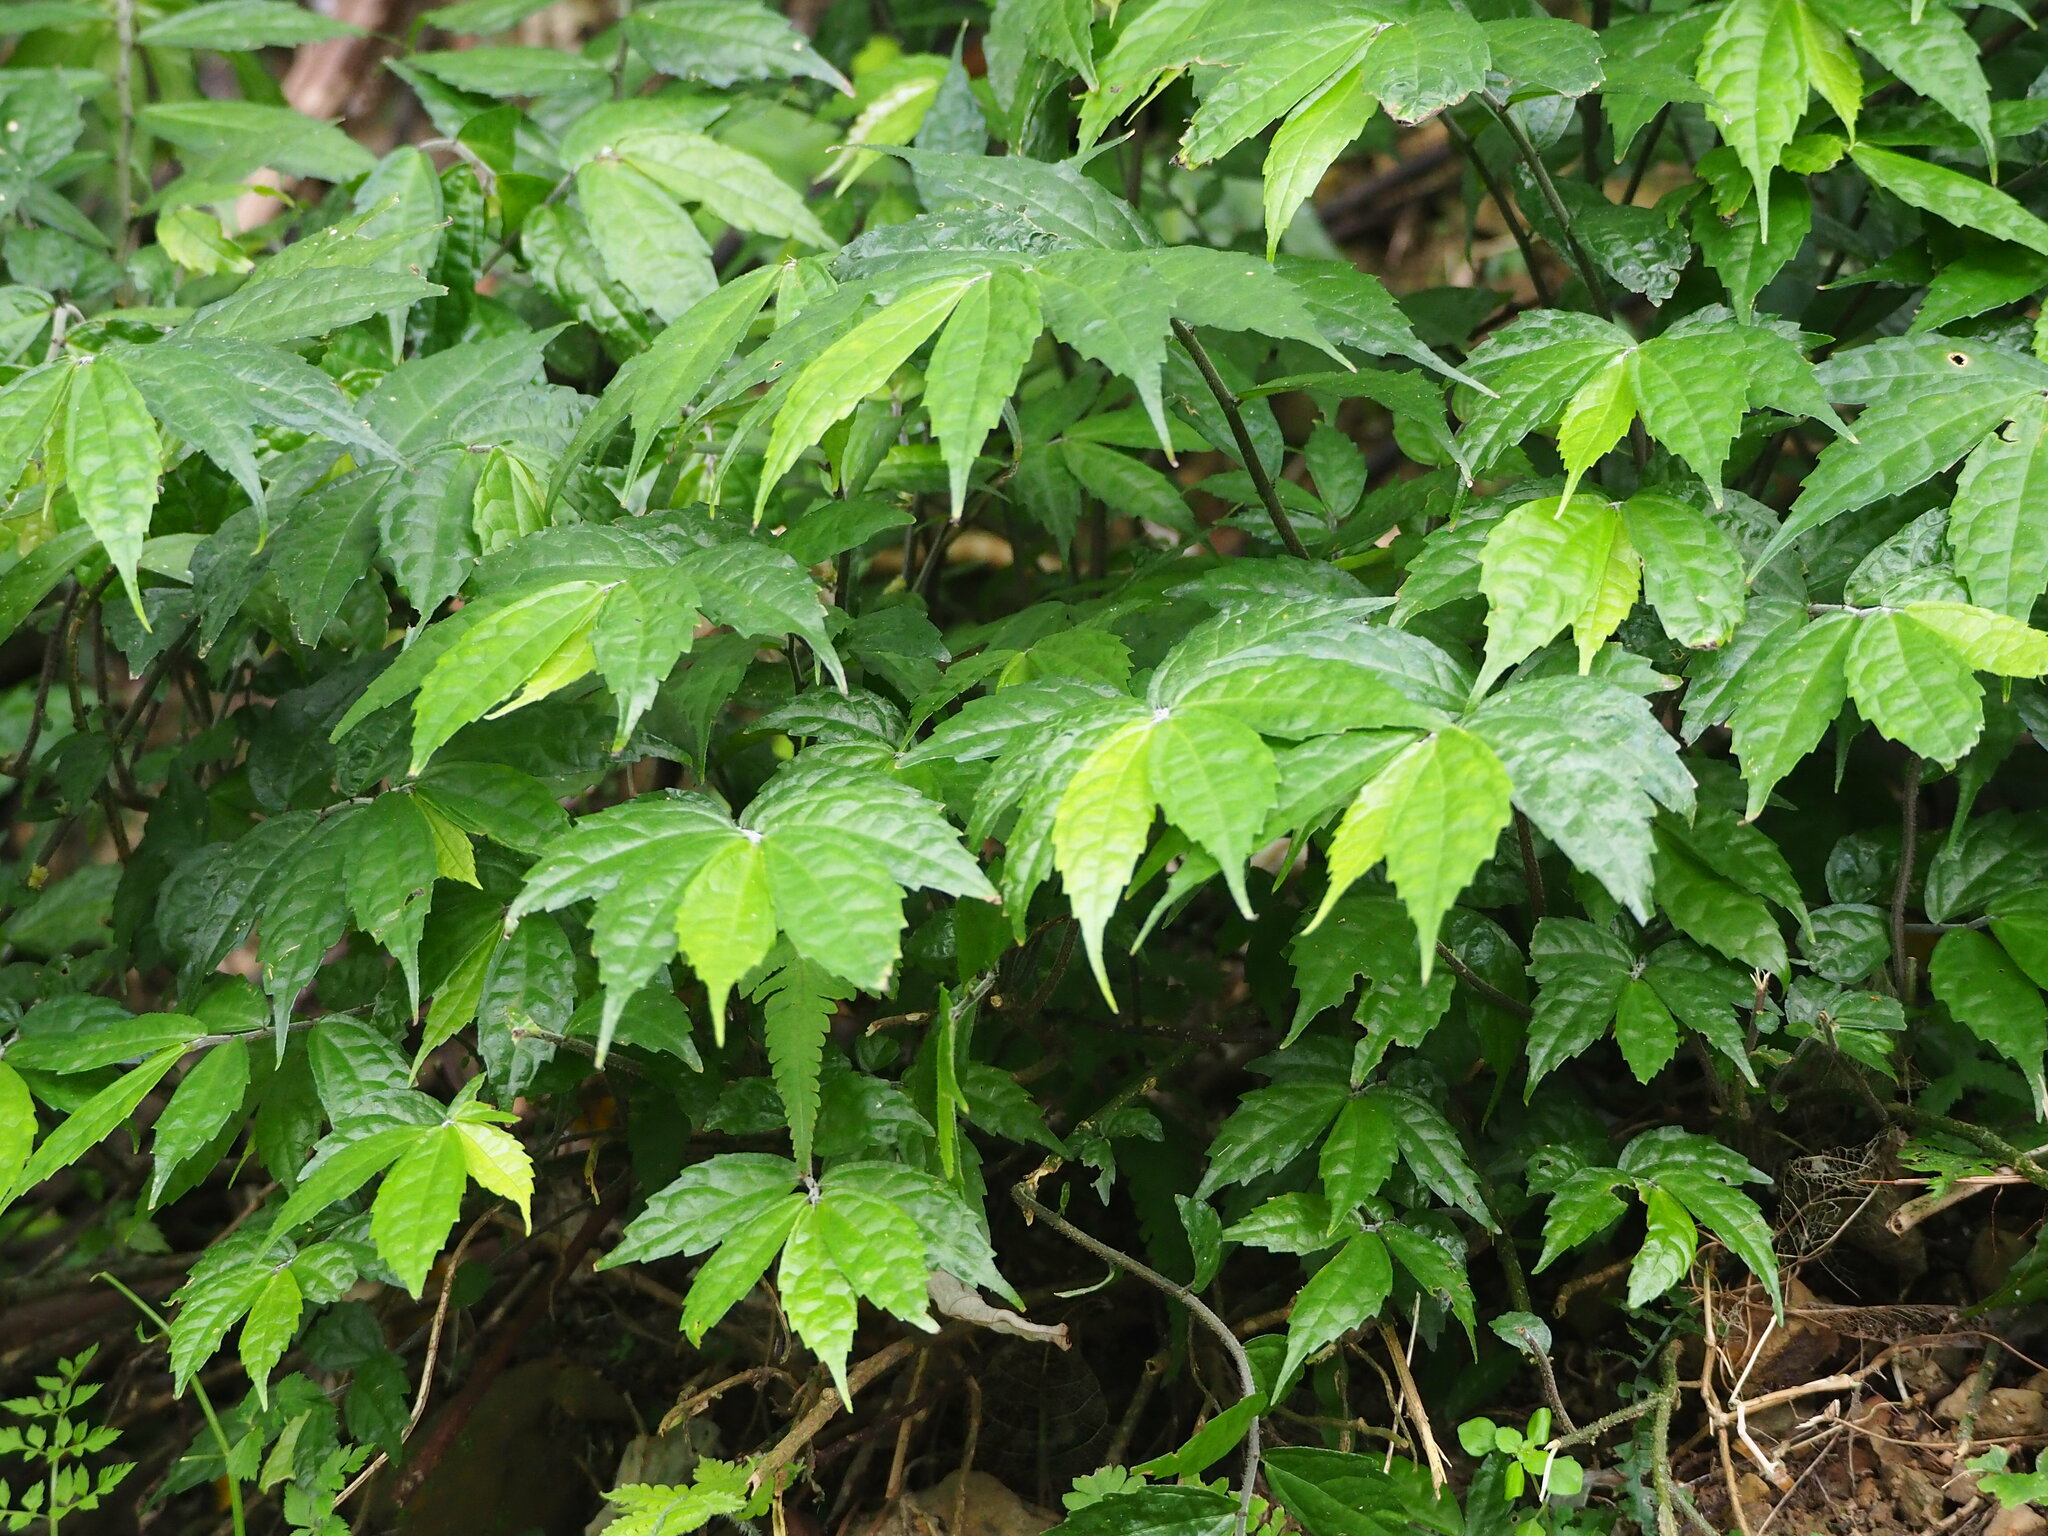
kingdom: Plantae
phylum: Tracheophyta
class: Magnoliopsida
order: Rosales
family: Urticaceae
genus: Elatostema
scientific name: Elatostema lineolatum
